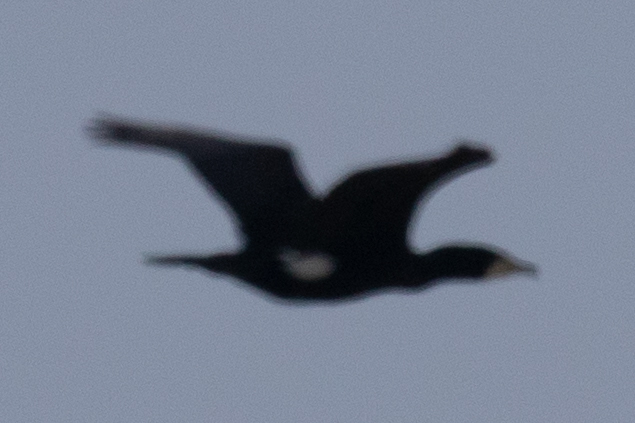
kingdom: Animalia
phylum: Chordata
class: Aves
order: Suliformes
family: Phalacrocoracidae
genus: Phalacrocorax
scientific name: Phalacrocorax carbo
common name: Great cormorant
